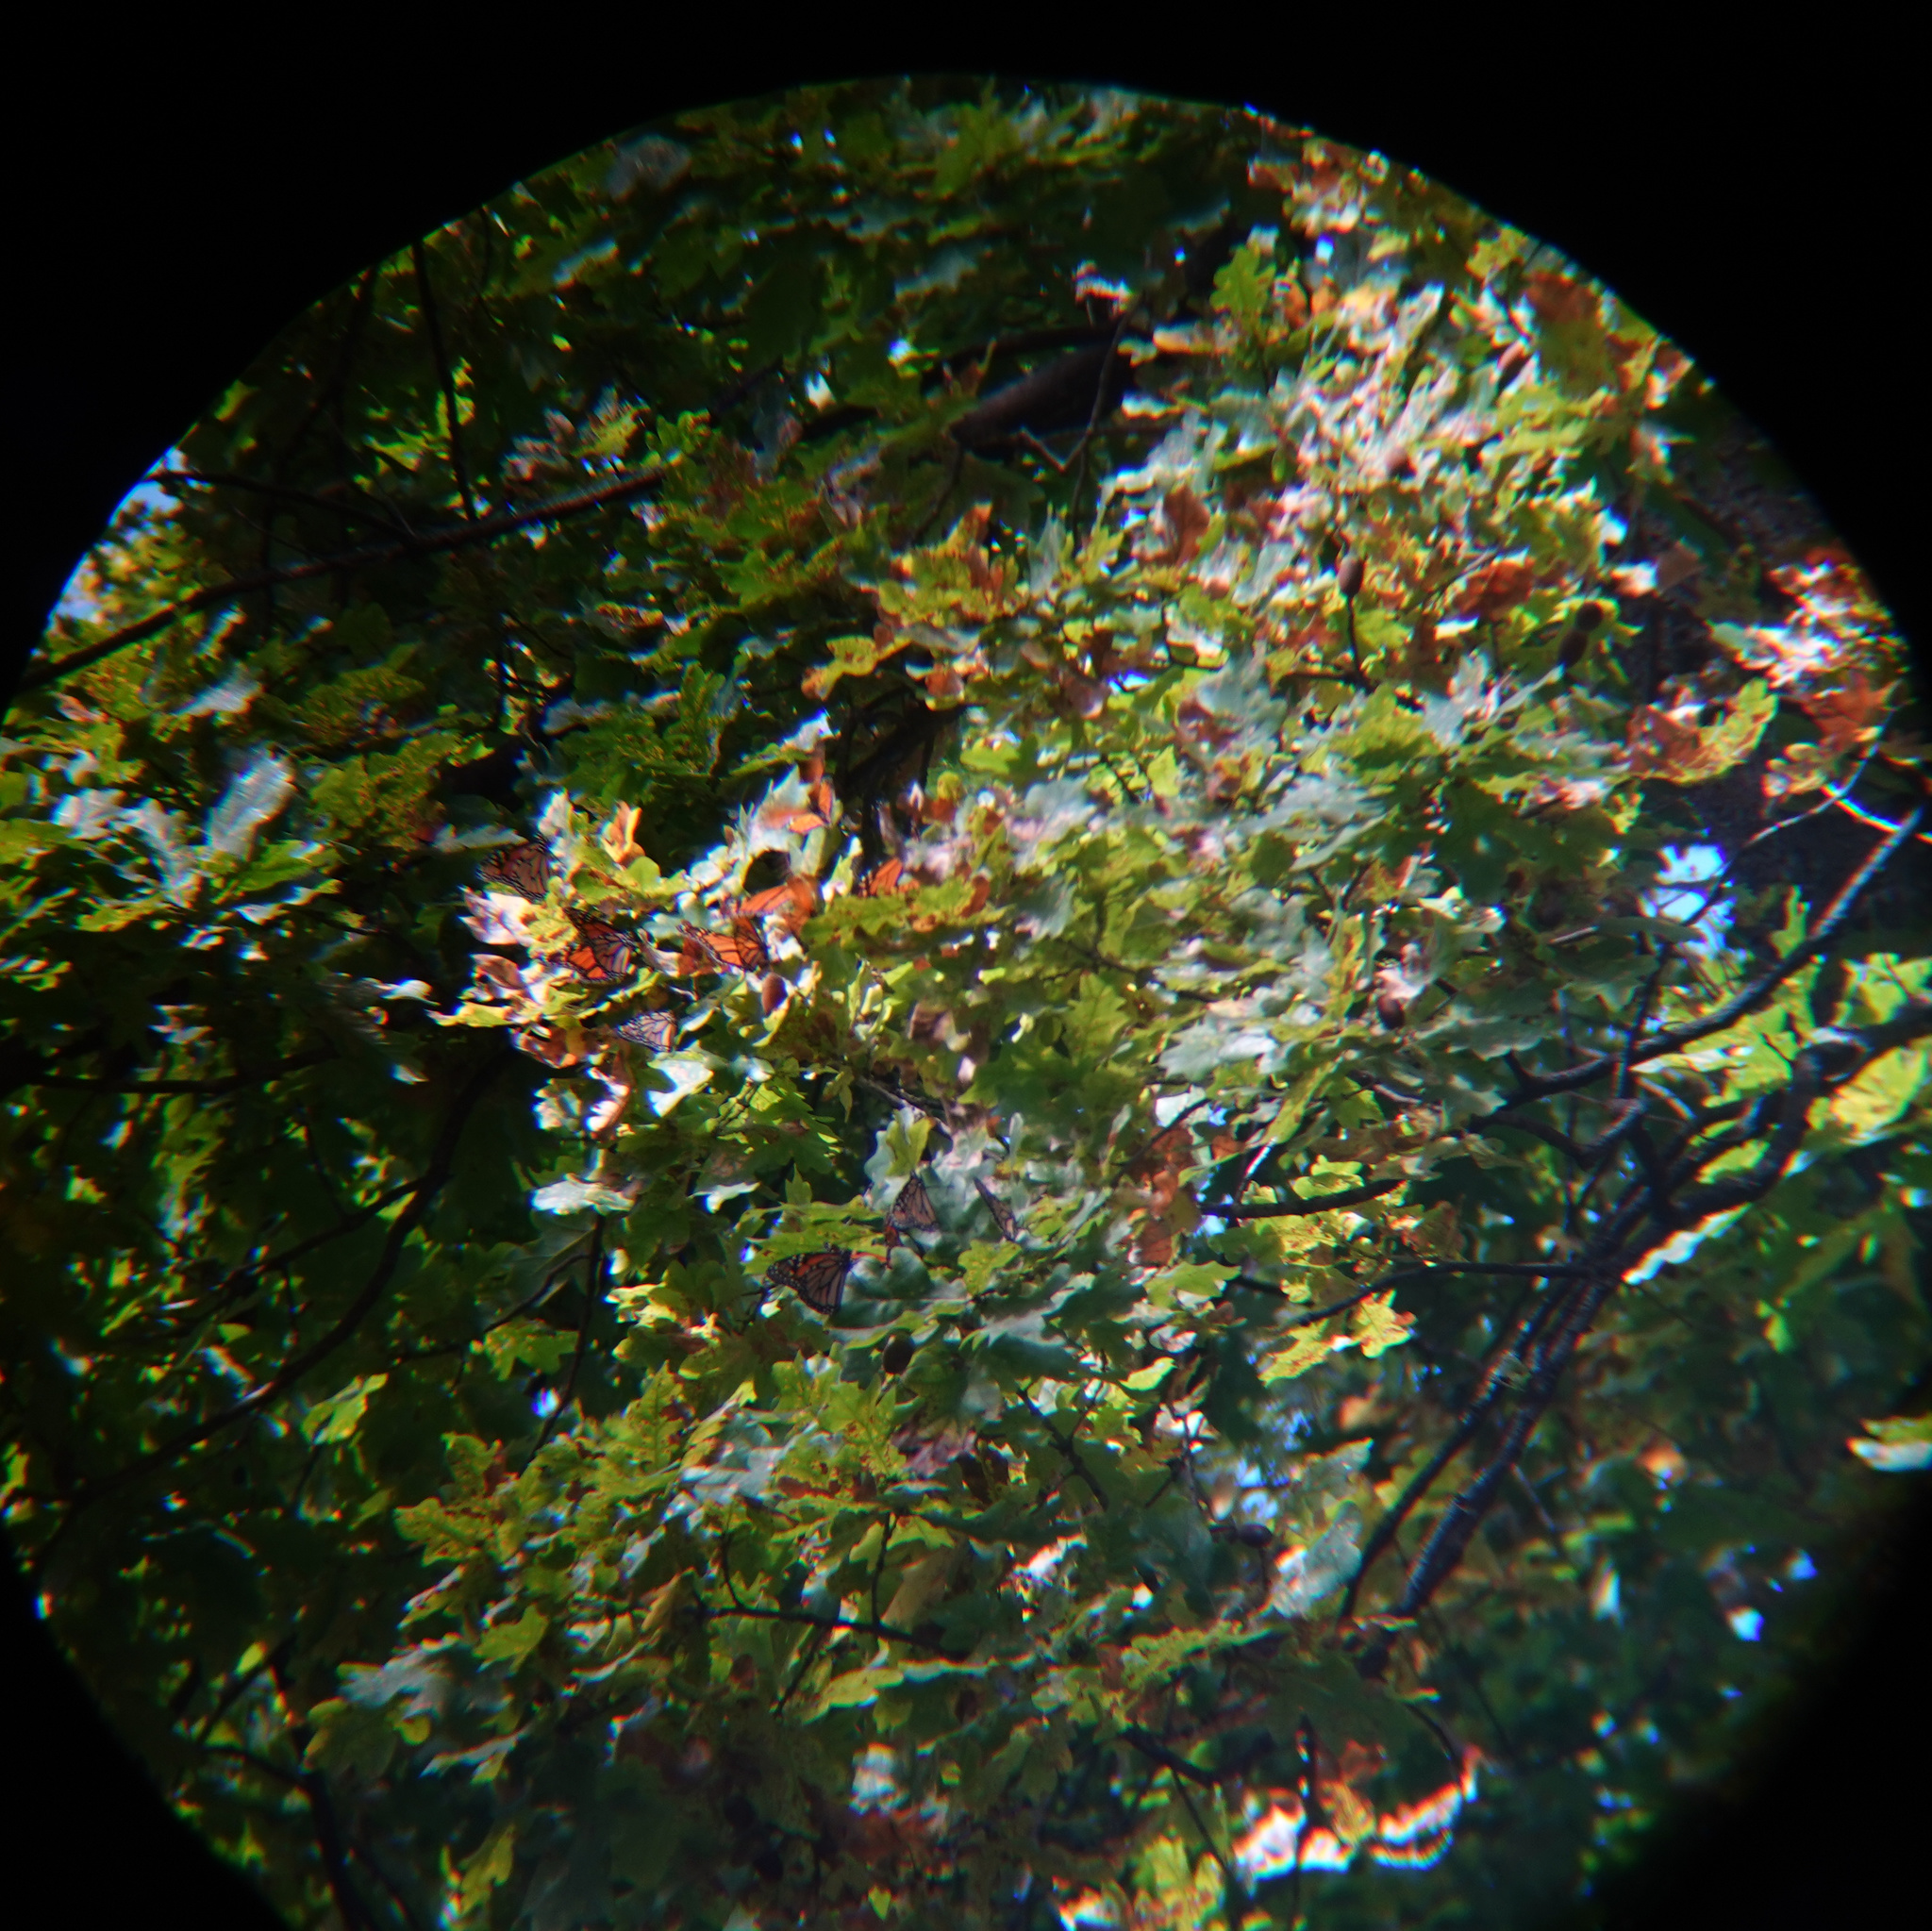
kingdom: Animalia
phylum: Arthropoda
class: Insecta
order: Lepidoptera
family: Nymphalidae
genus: Danaus
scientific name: Danaus plexippus
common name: Monarch
